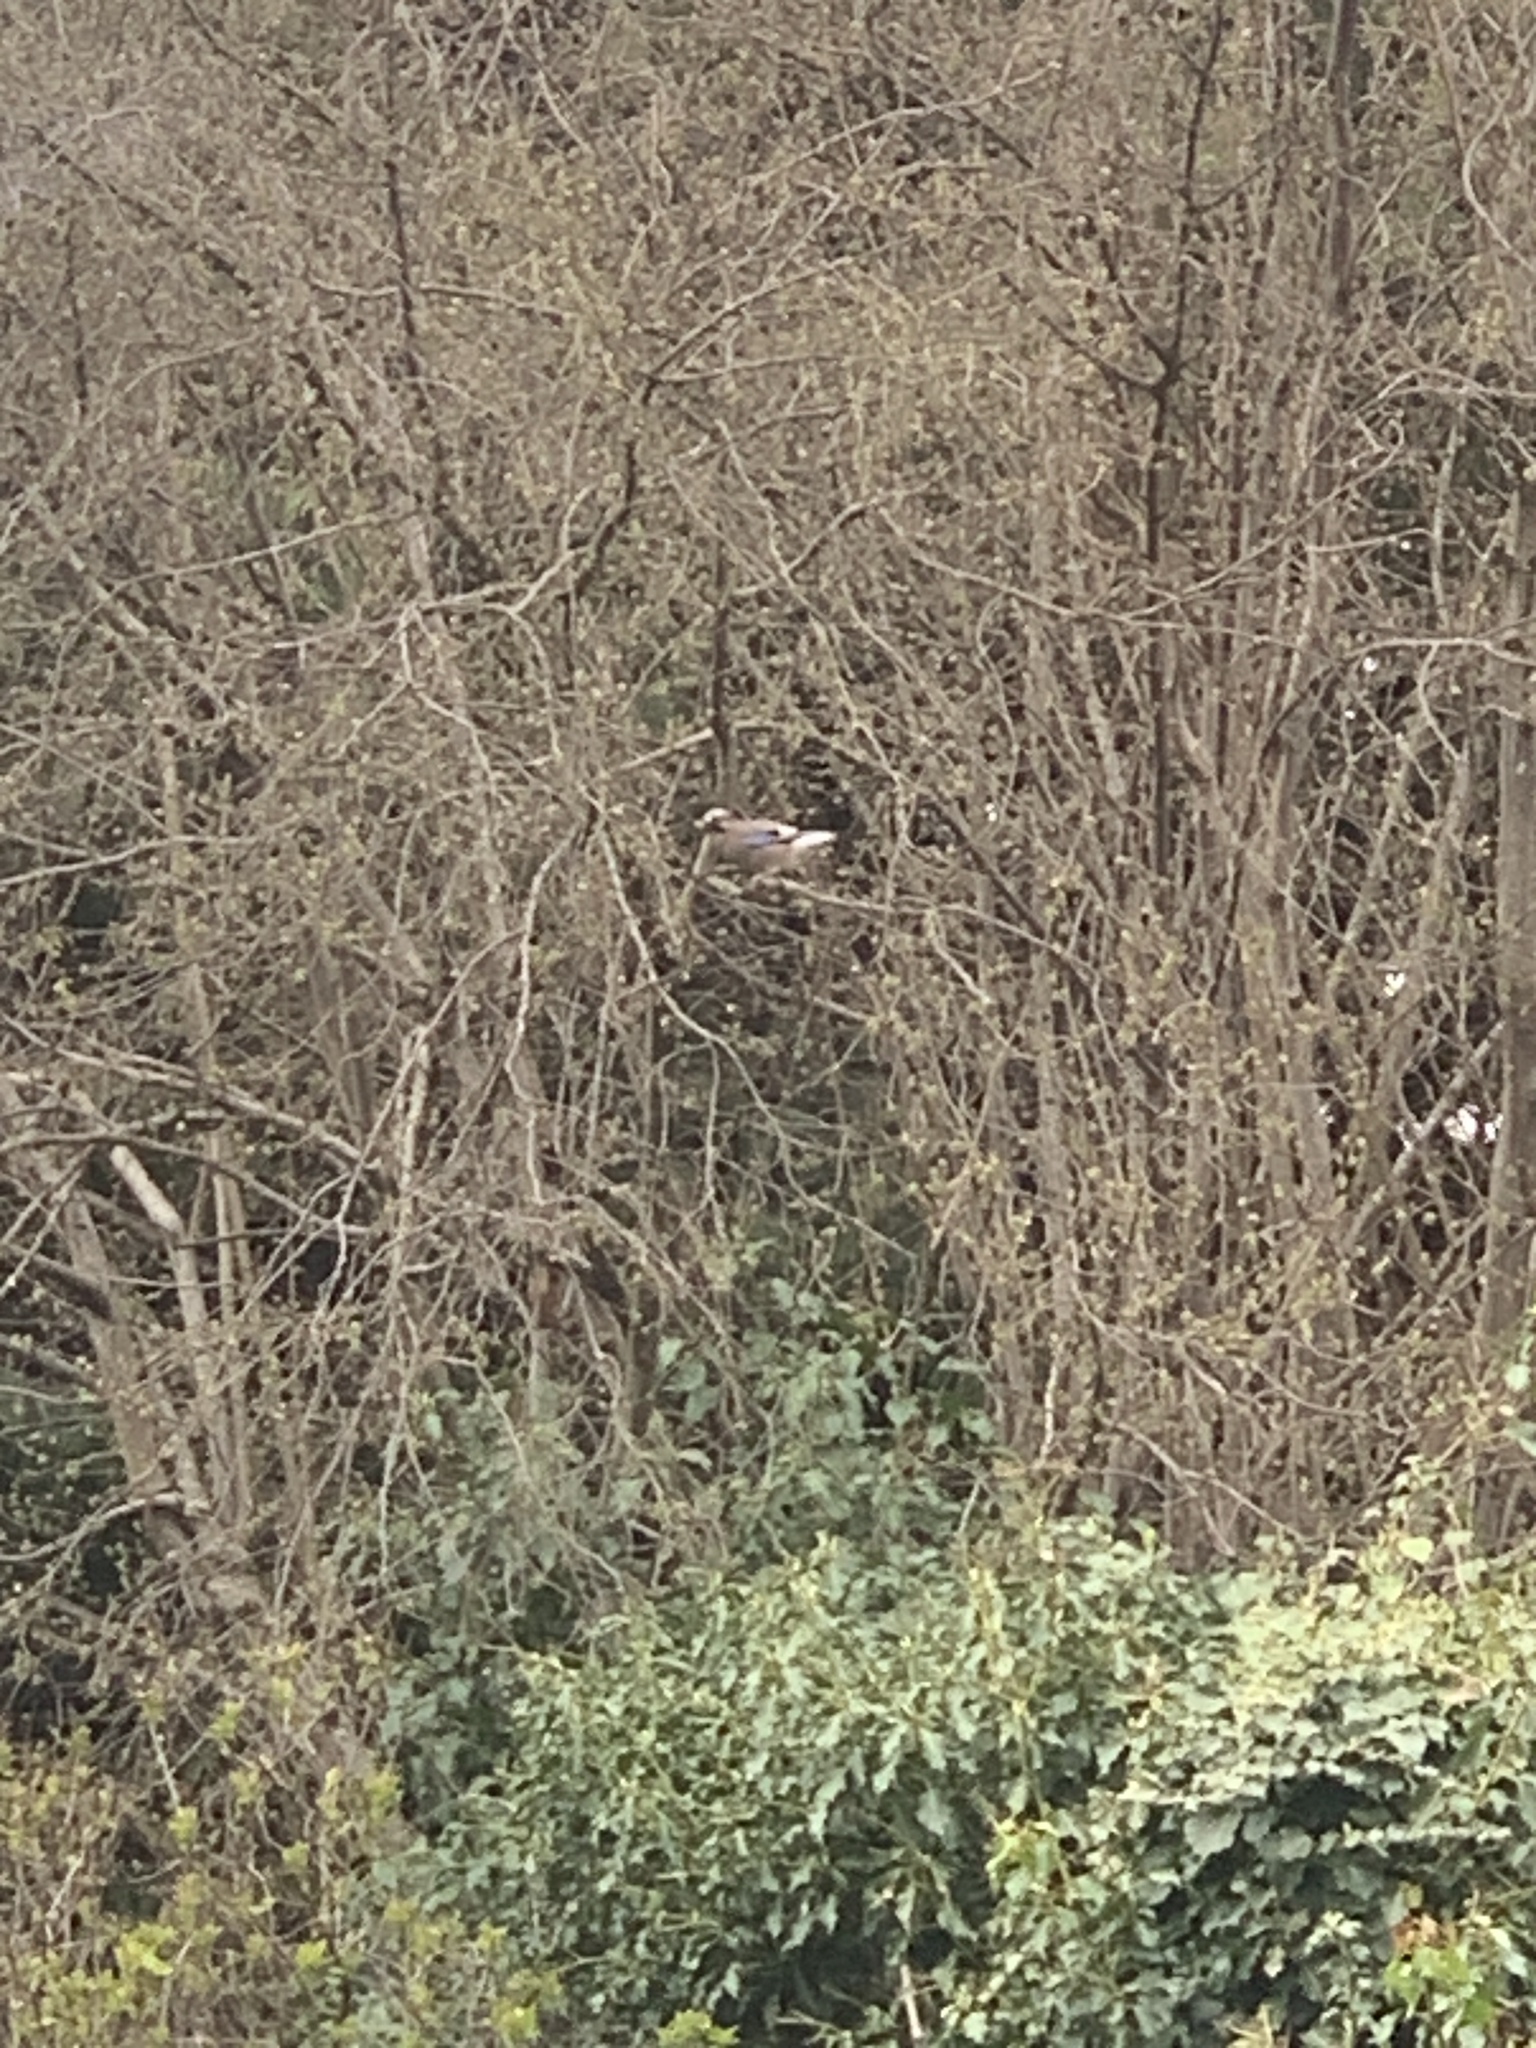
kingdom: Animalia
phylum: Chordata
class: Aves
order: Passeriformes
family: Corvidae
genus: Garrulus
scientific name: Garrulus glandarius
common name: Eurasian jay
